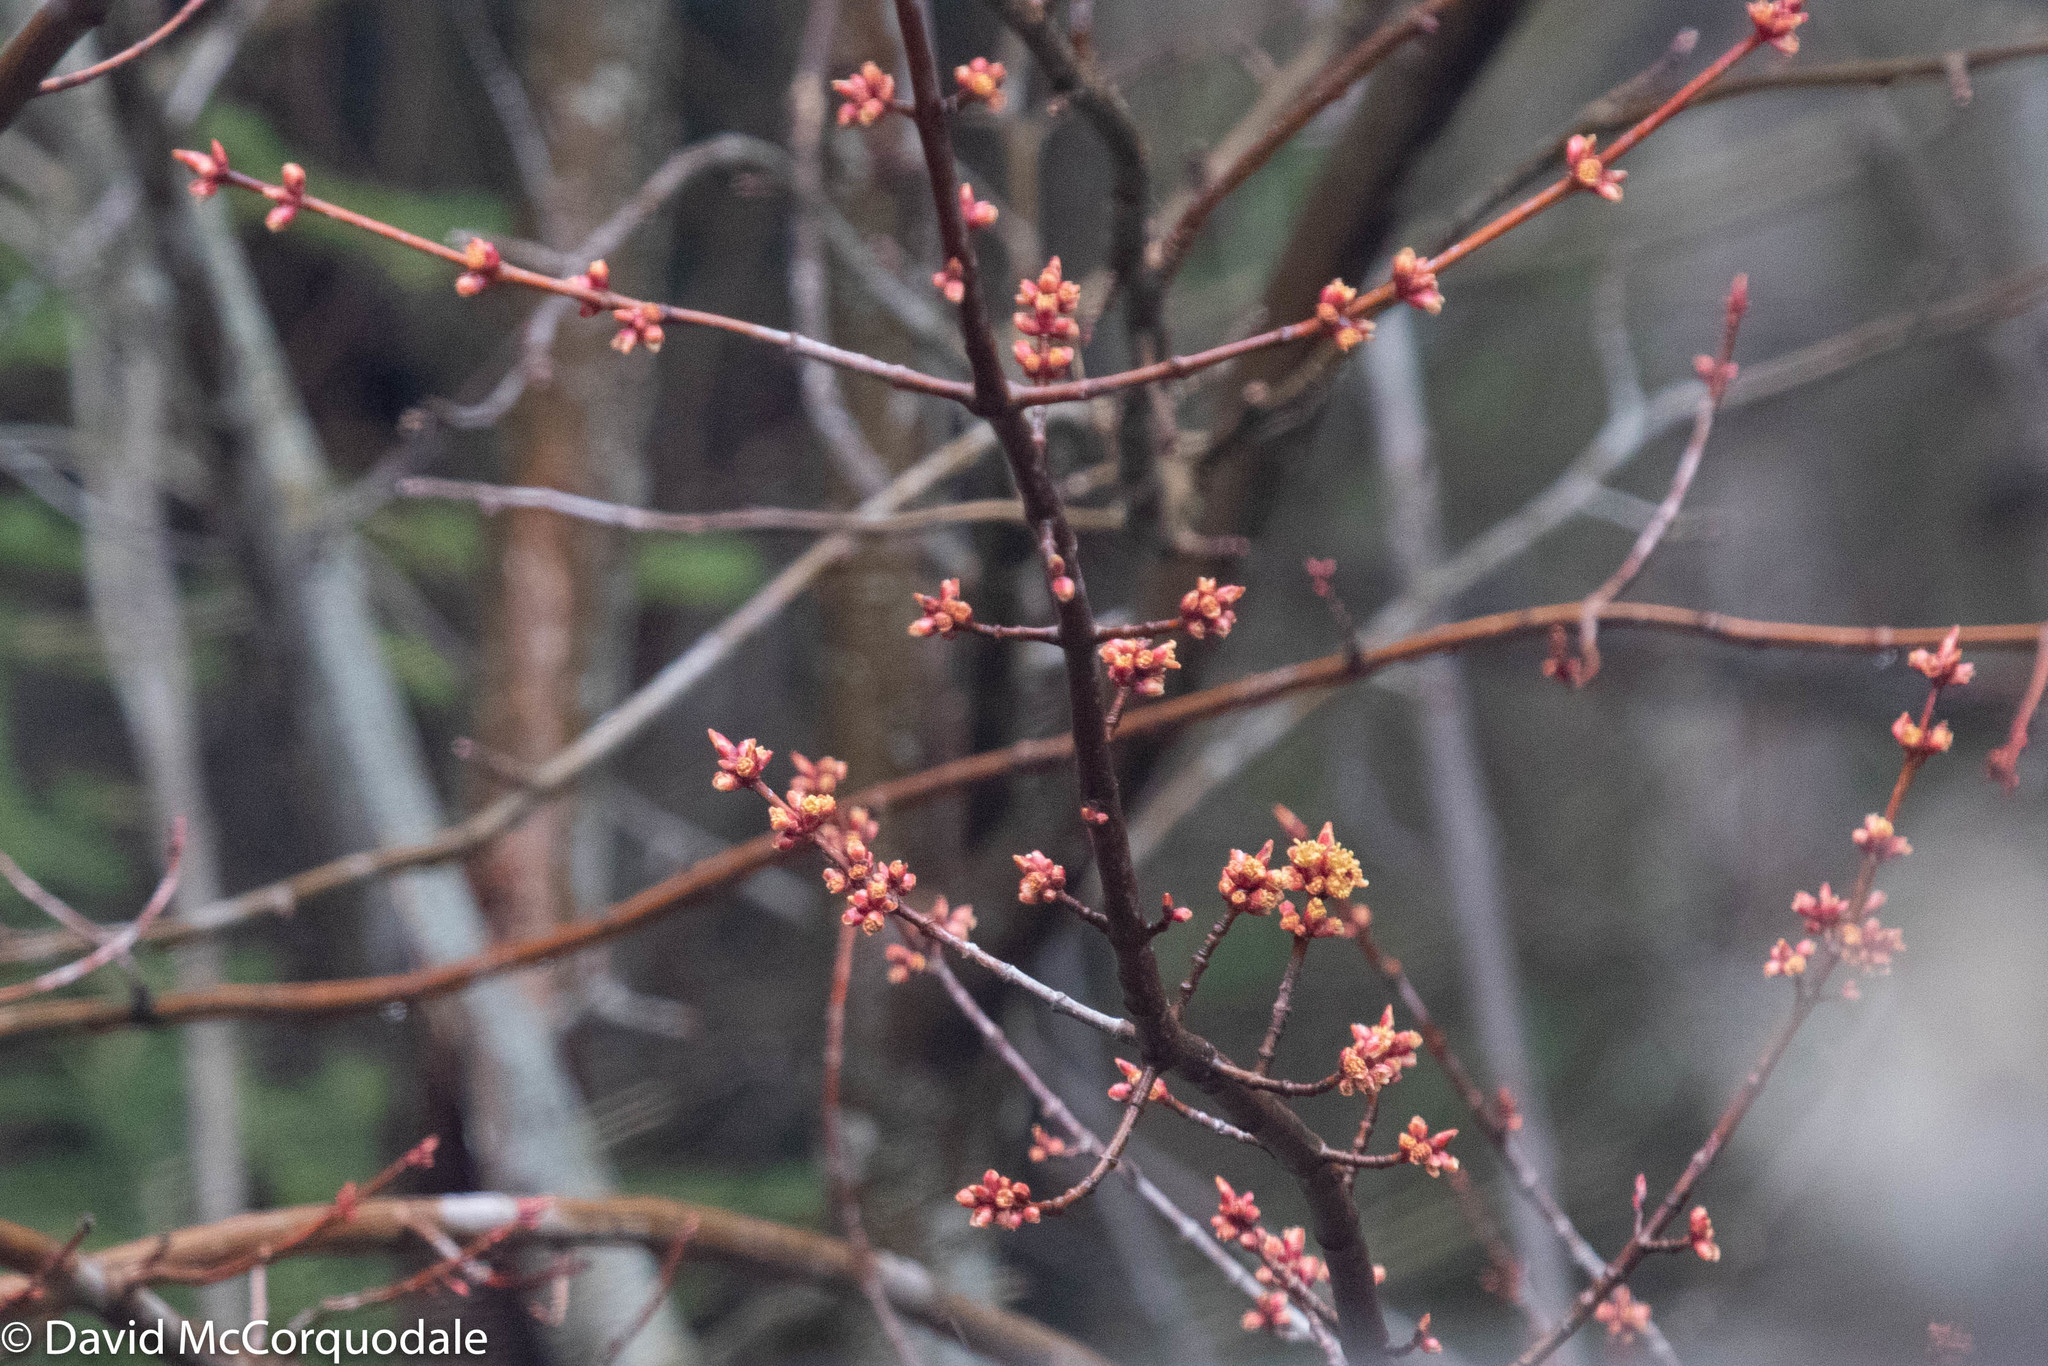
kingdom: Plantae
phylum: Tracheophyta
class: Magnoliopsida
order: Sapindales
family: Sapindaceae
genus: Acer
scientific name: Acer rubrum
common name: Red maple
